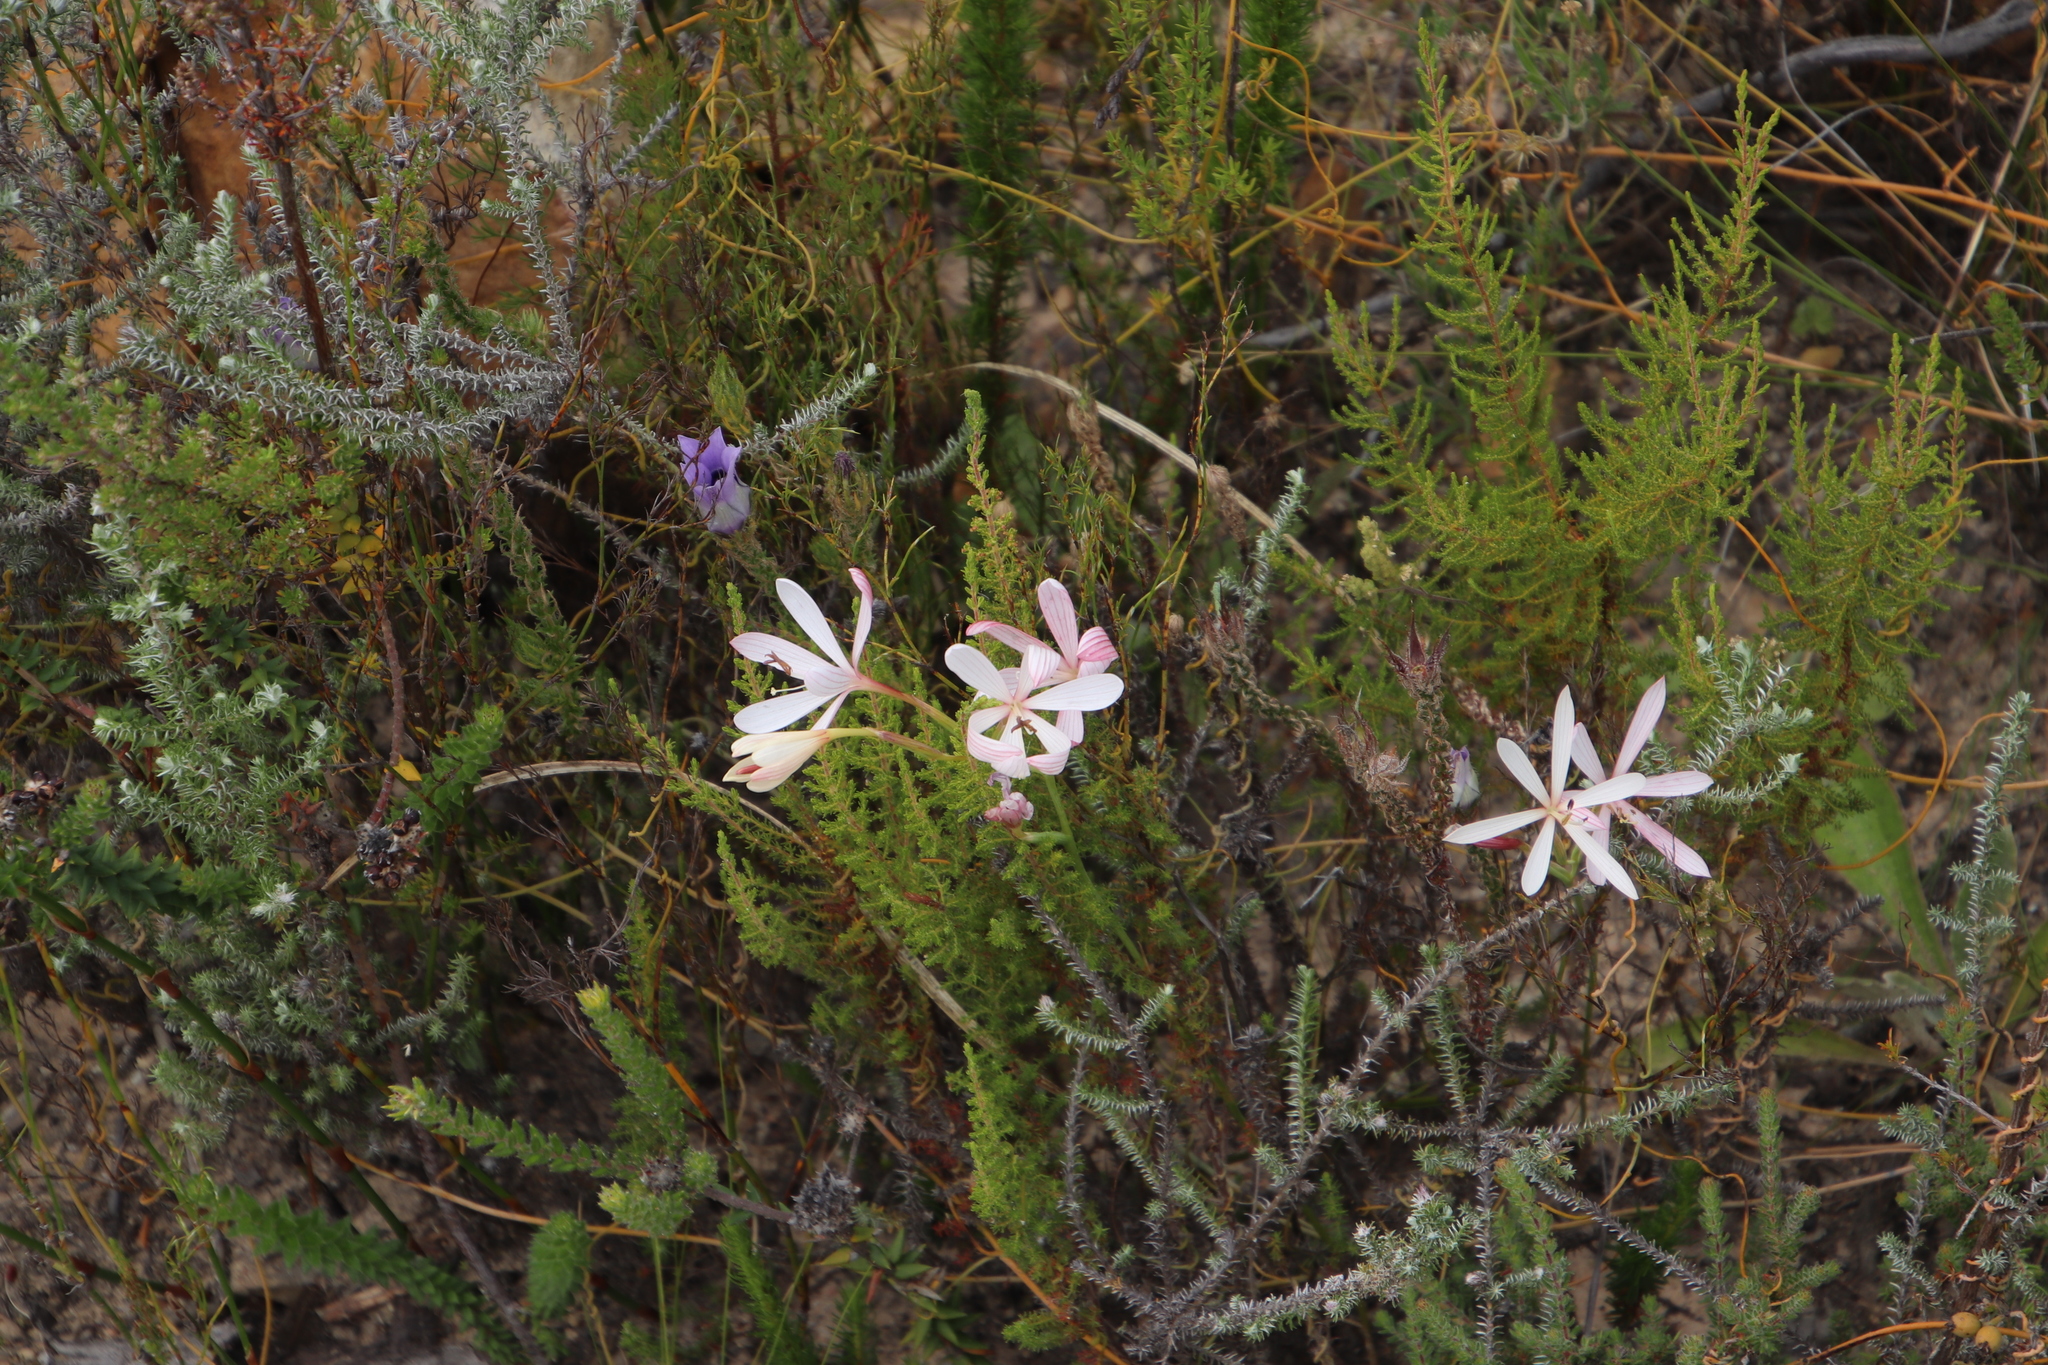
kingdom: Plantae
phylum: Tracheophyta
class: Liliopsida
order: Asparagales
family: Iridaceae
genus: Geissorhiza
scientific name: Geissorhiza exscapa
